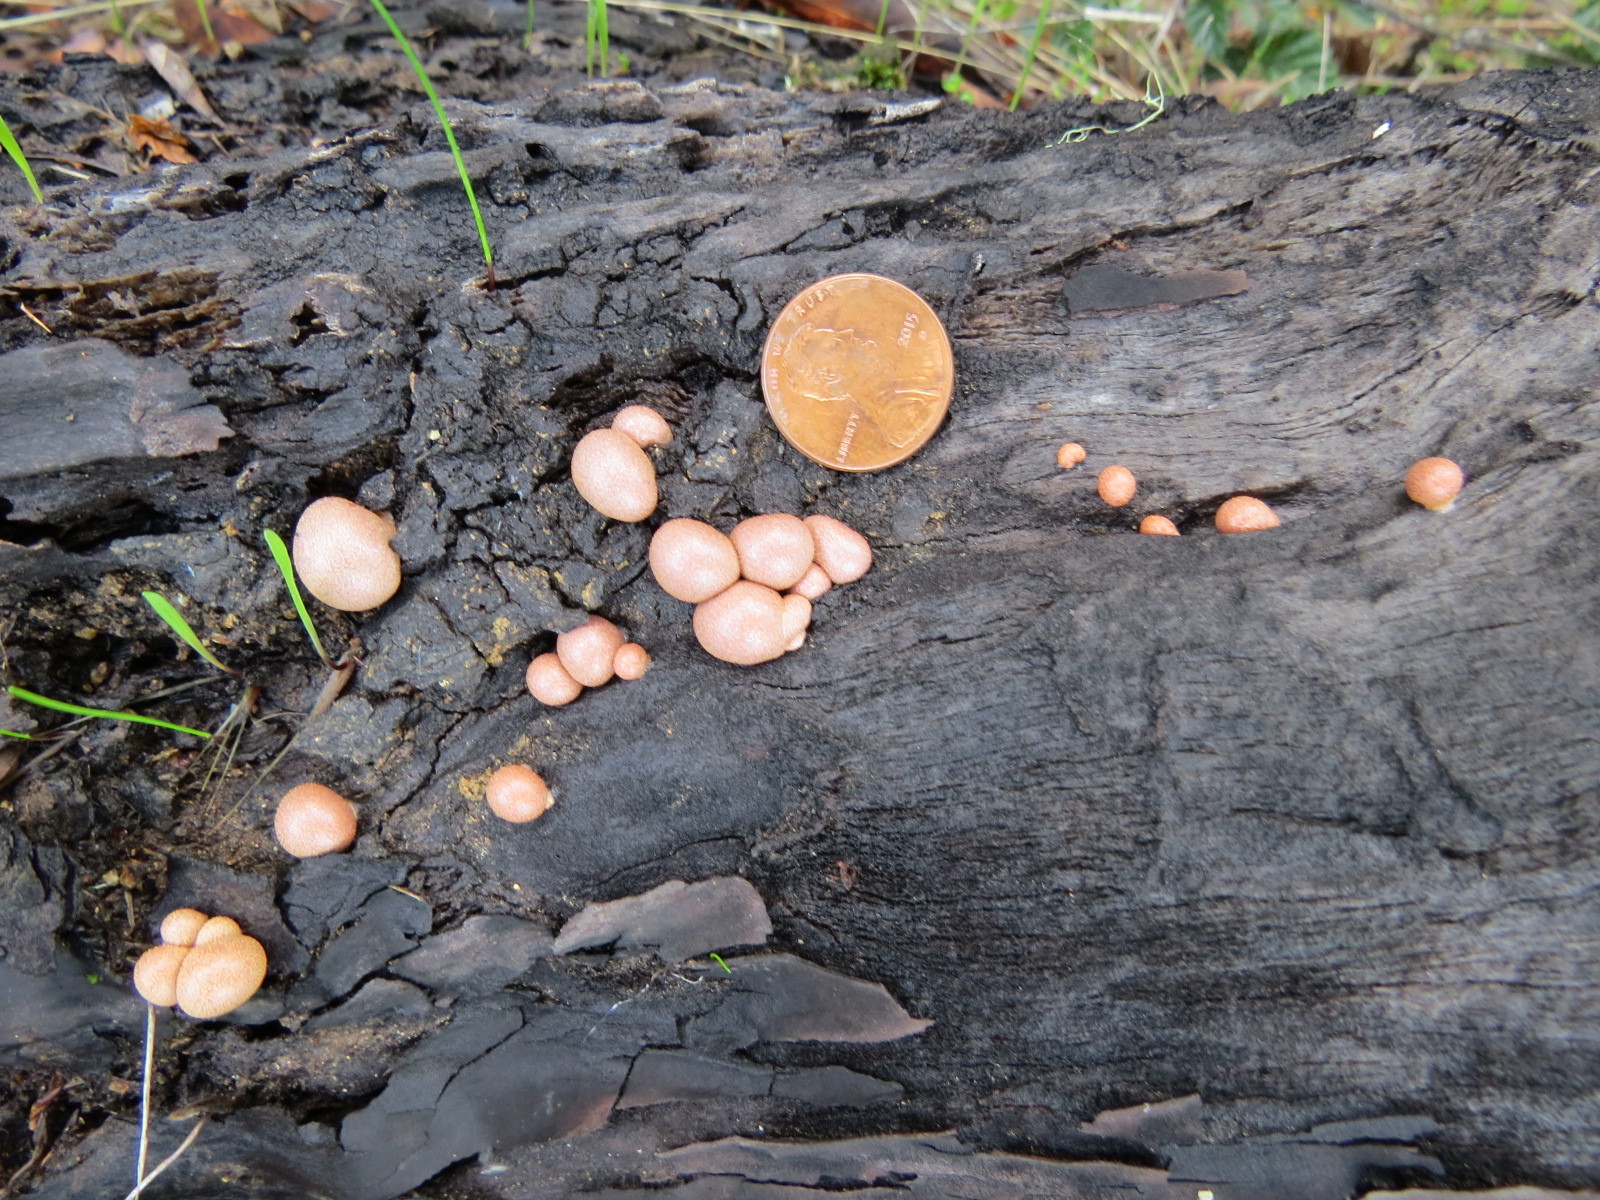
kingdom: Protozoa
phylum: Mycetozoa
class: Myxomycetes
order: Cribrariales
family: Tubiferaceae
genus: Lycogala
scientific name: Lycogala epidendrum
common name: Wolf's milk
